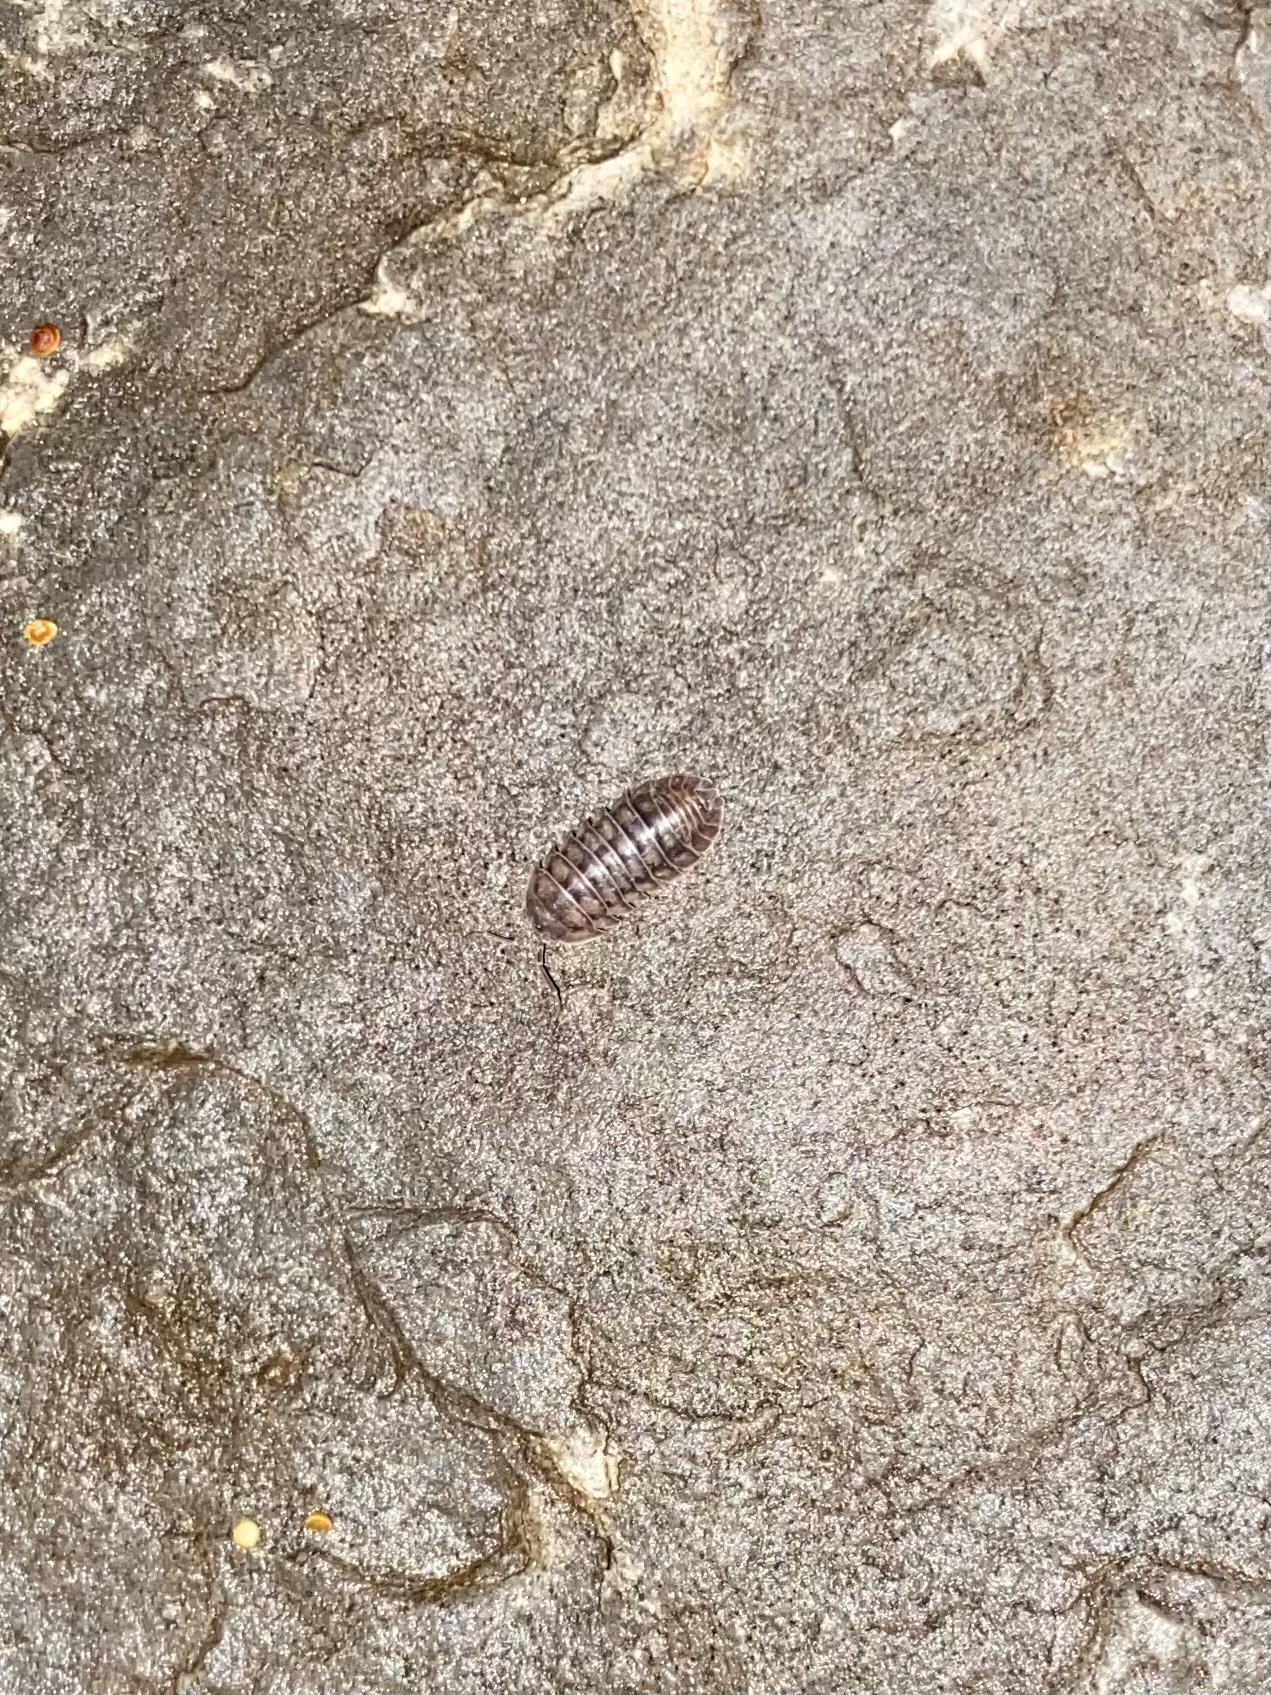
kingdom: Animalia
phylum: Arthropoda
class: Malacostraca
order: Isopoda
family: Armadillidiidae
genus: Armadillidium
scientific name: Armadillidium nasatum
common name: Isopod
